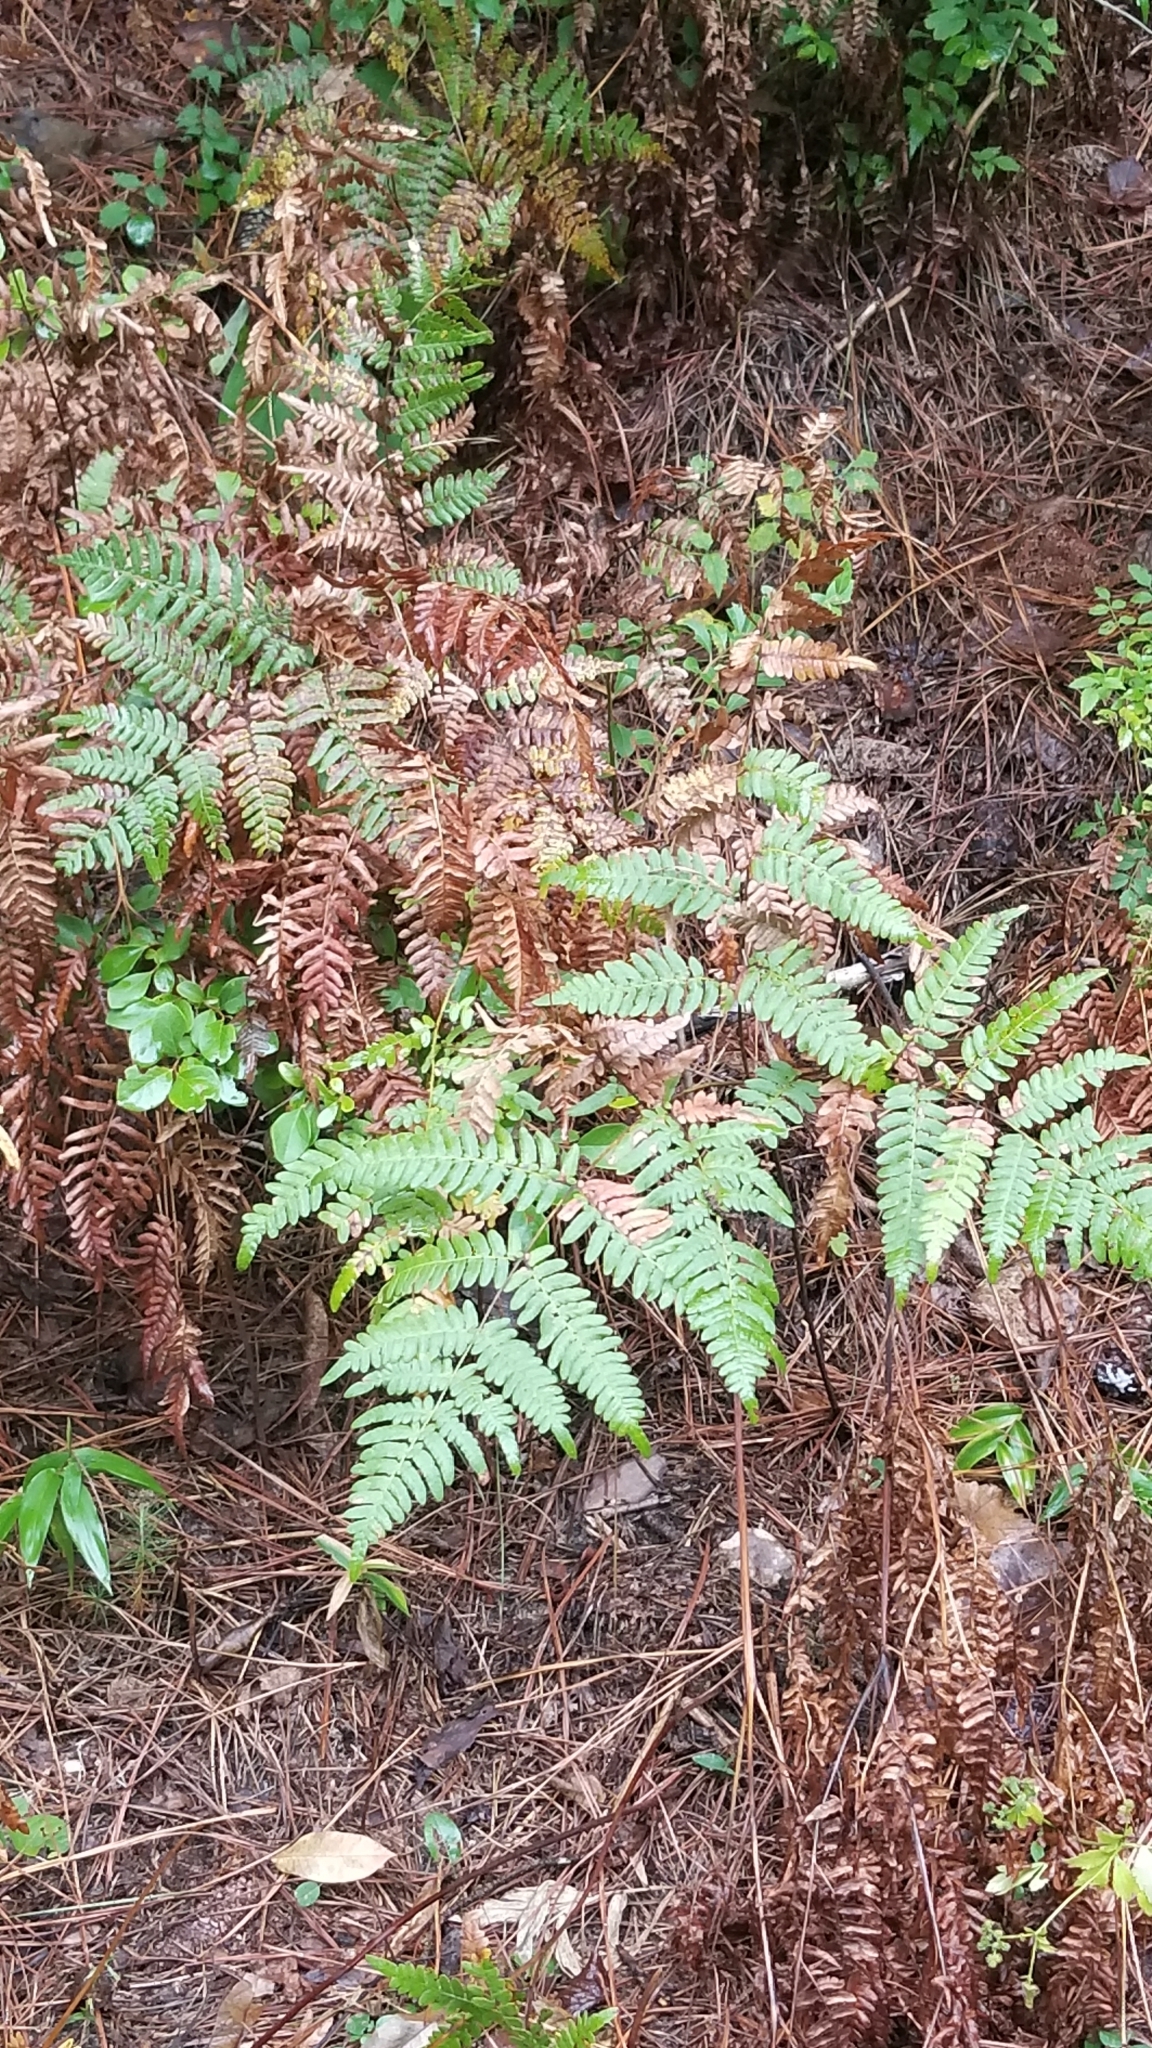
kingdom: Plantae
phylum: Tracheophyta
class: Polypodiopsida
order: Polypodiales
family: Dennstaedtiaceae
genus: Pteridium
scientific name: Pteridium aquilinum
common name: Bracken
